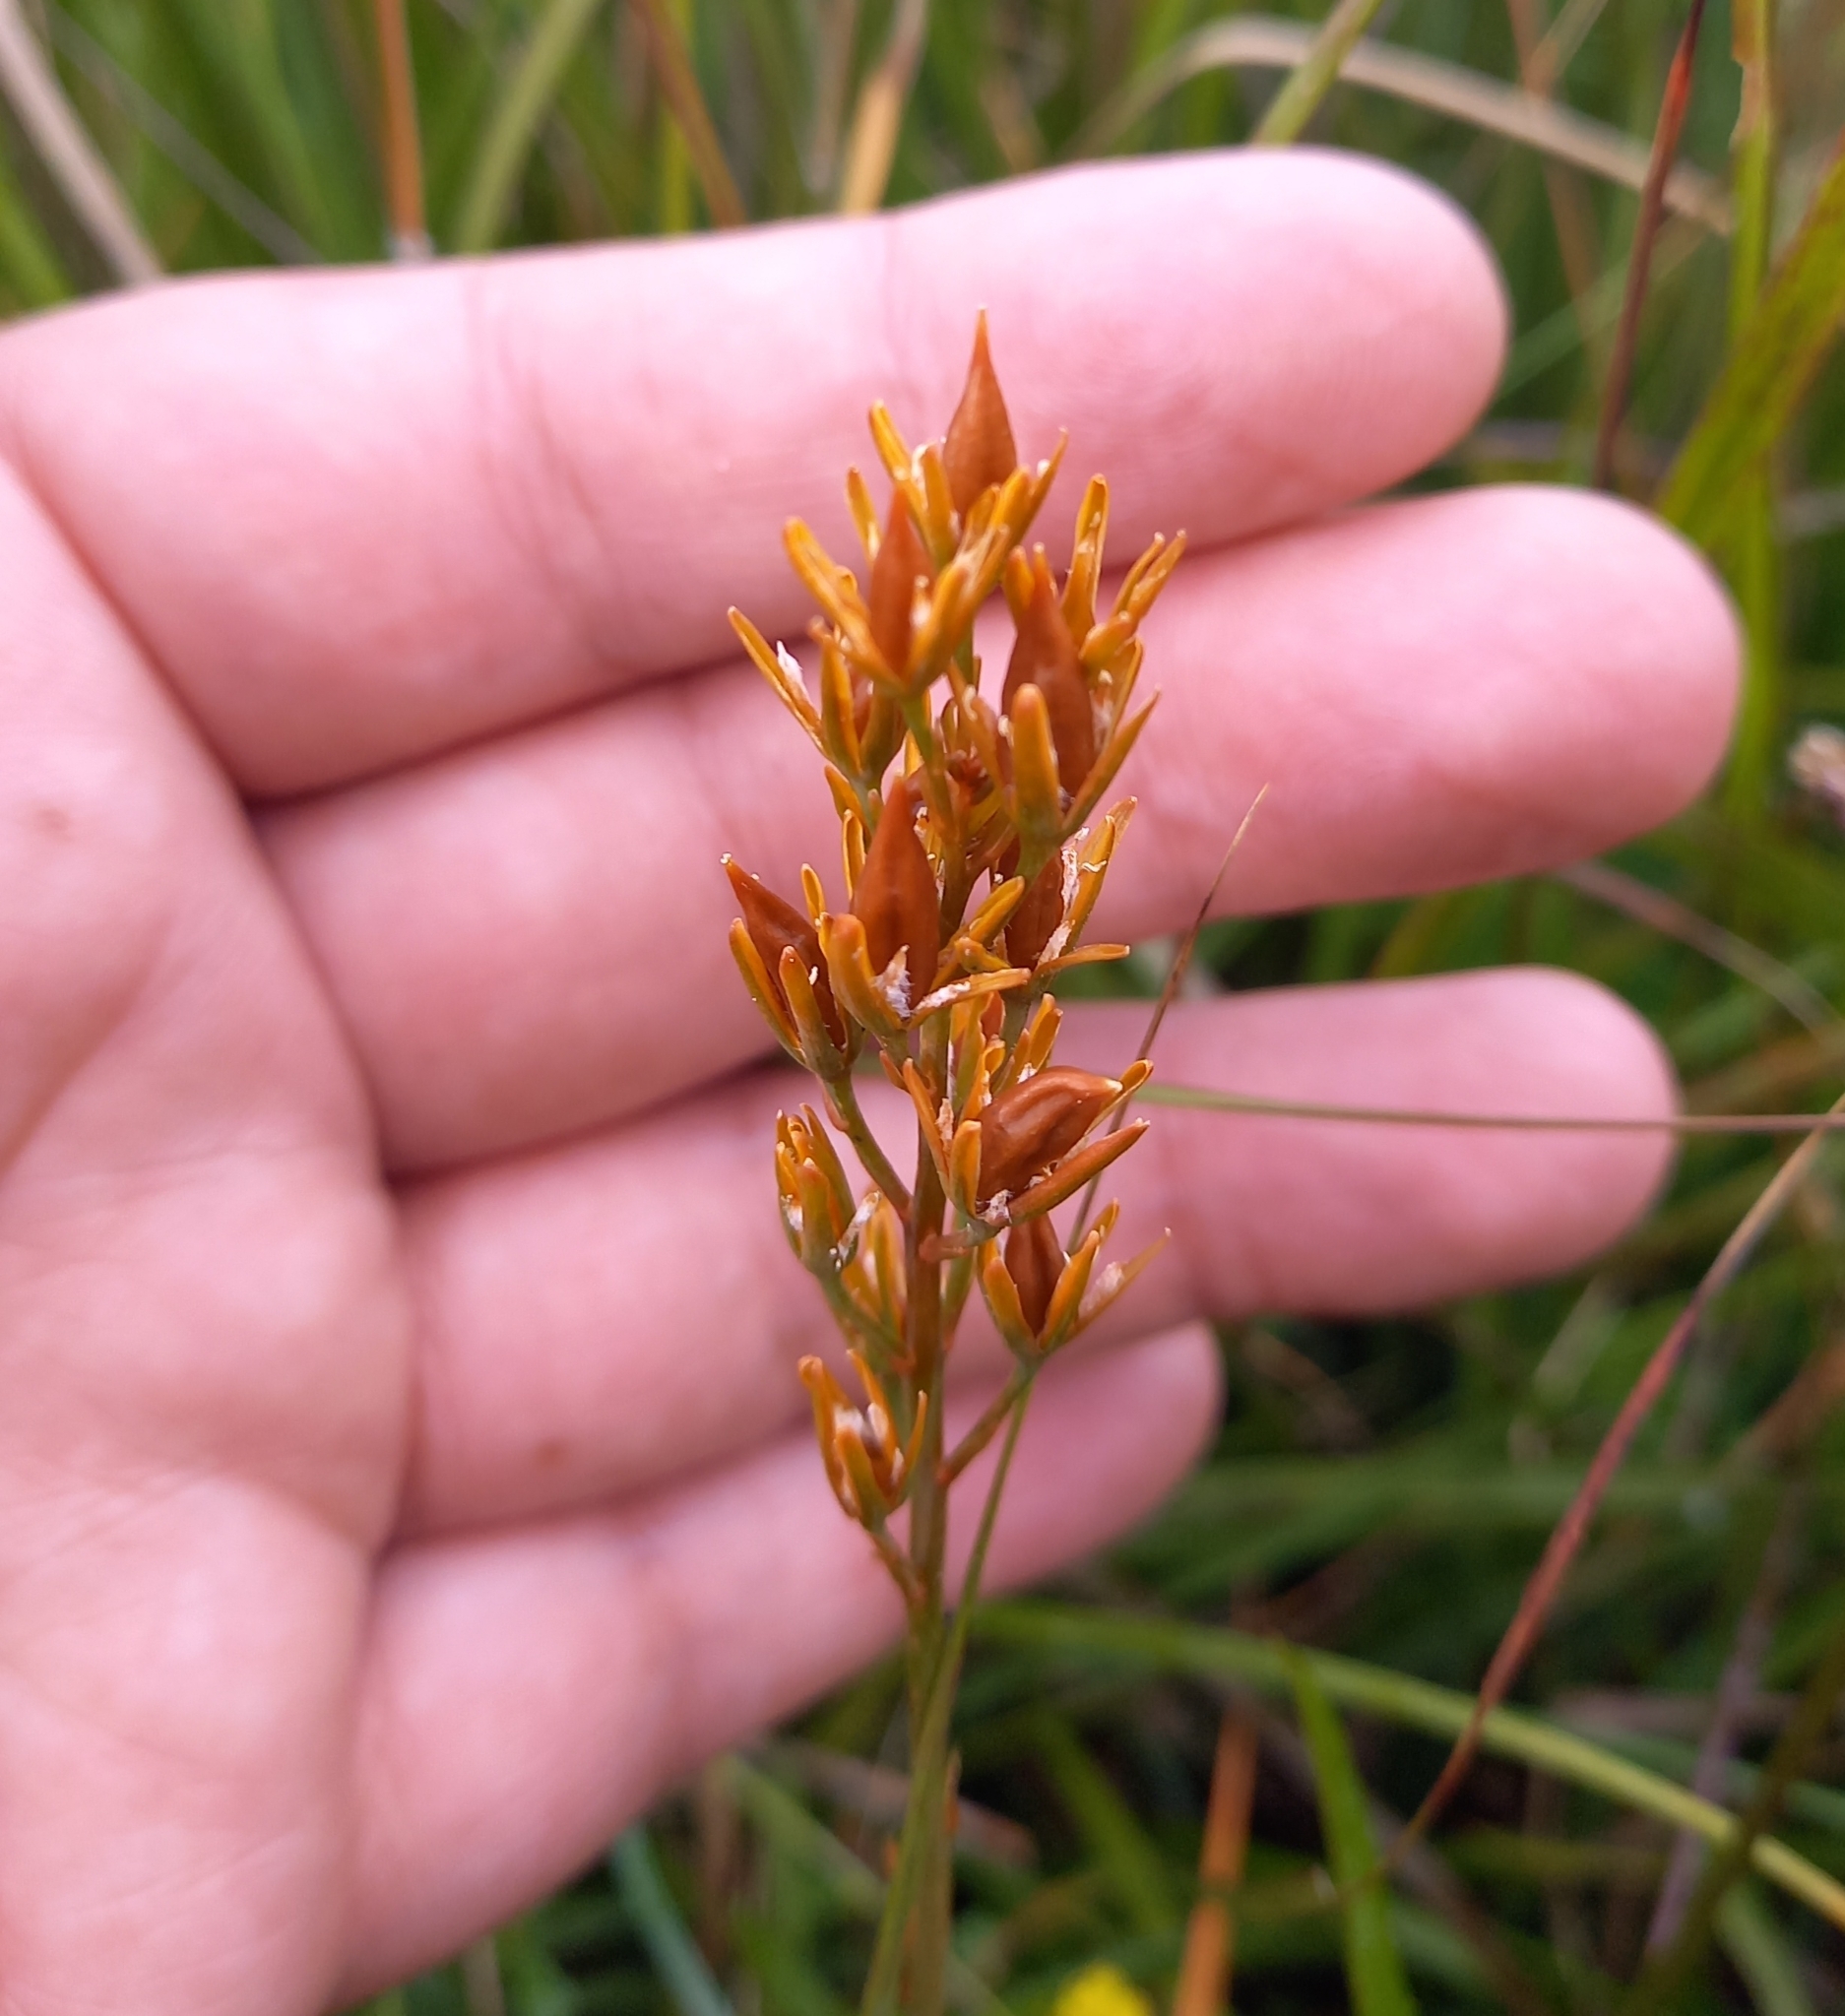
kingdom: Plantae
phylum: Tracheophyta
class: Liliopsida
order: Dioscoreales
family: Nartheciaceae
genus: Narthecium
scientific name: Narthecium ossifragum
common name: Bog asphodel
